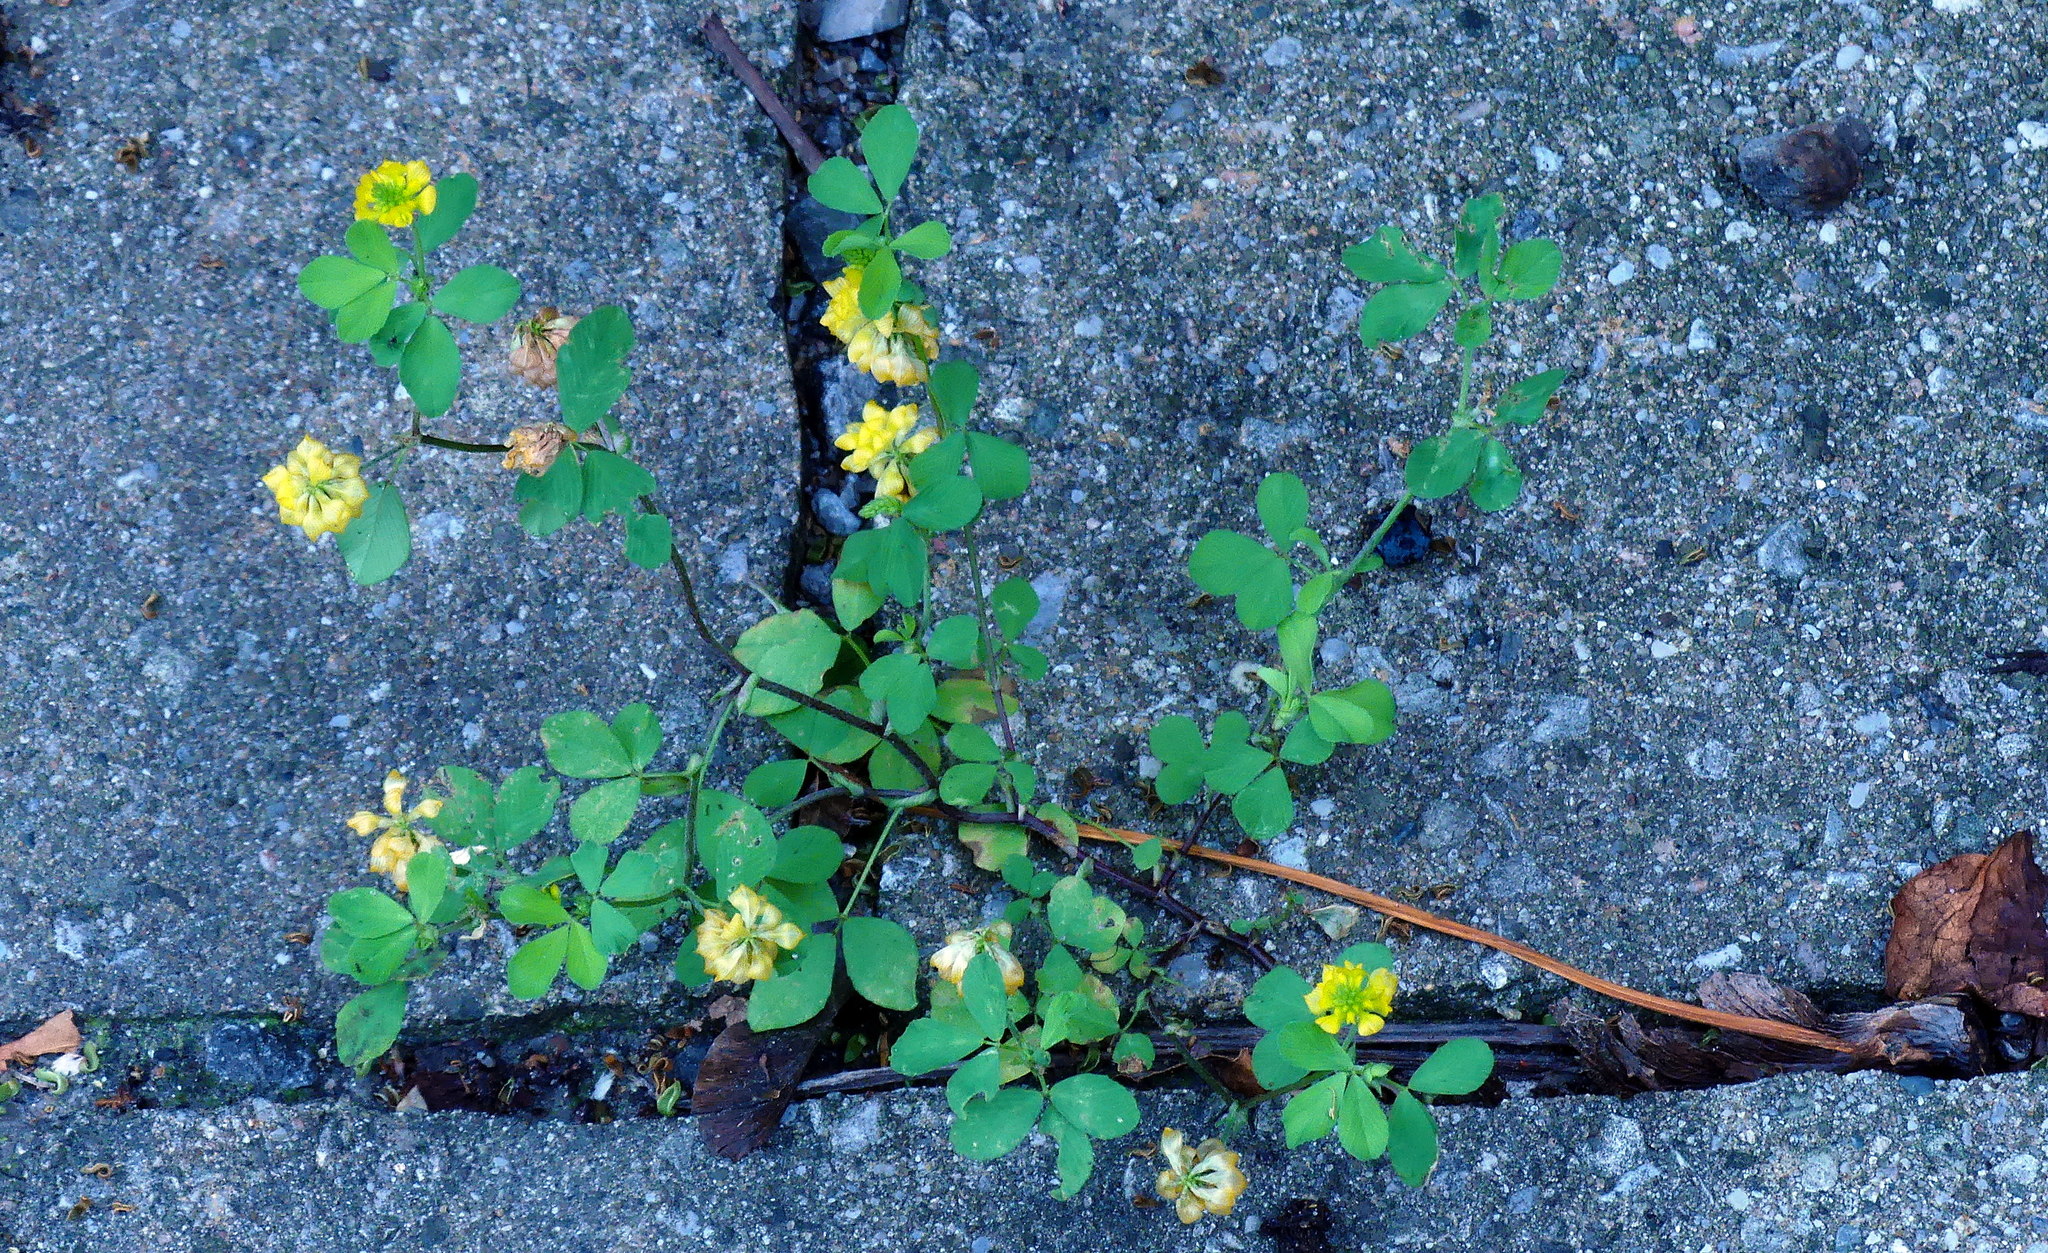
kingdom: Plantae
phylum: Tracheophyta
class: Magnoliopsida
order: Fabales
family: Fabaceae
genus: Trifolium
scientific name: Trifolium aureum
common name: Golden clover
